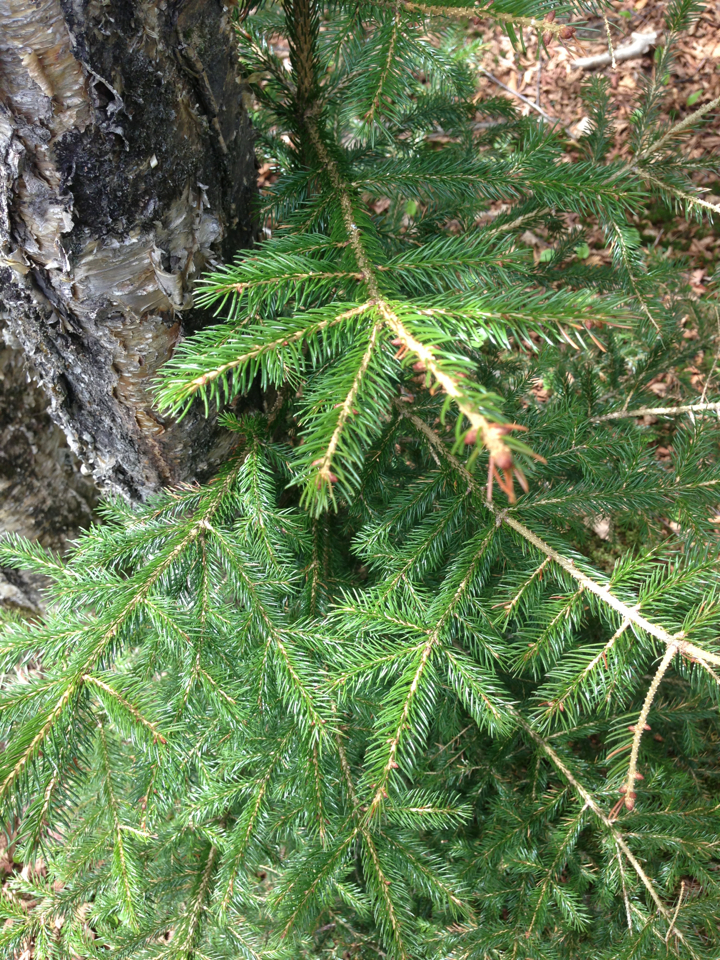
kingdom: Plantae
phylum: Tracheophyta
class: Pinopsida
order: Pinales
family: Pinaceae
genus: Picea
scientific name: Picea rubens
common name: Red spruce
